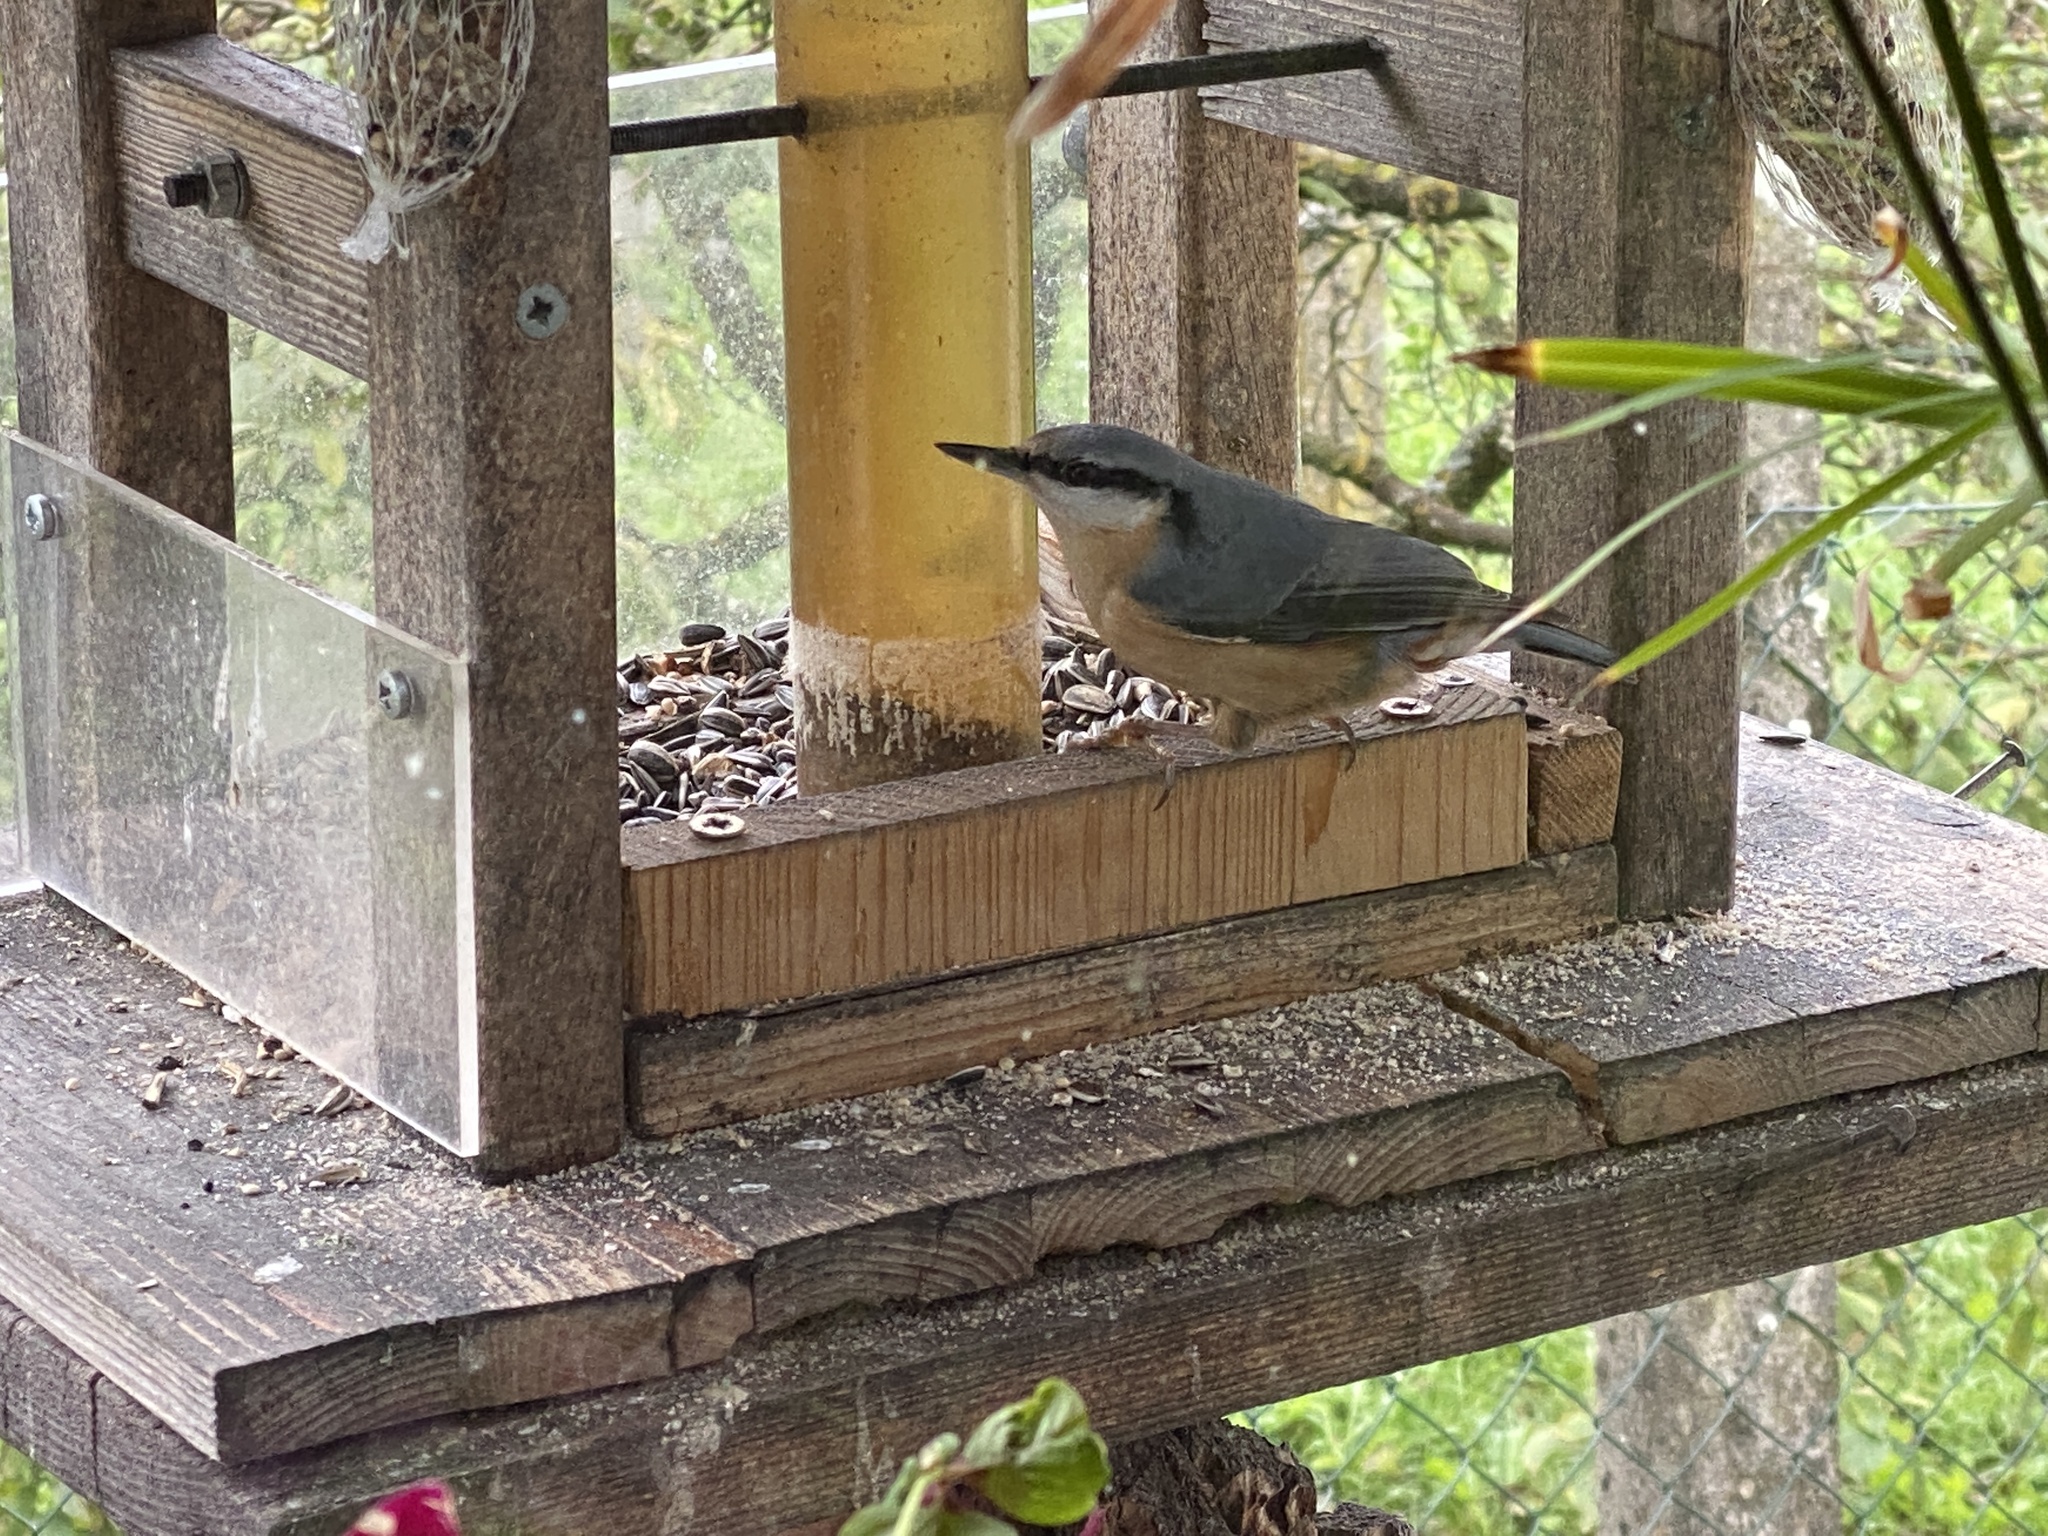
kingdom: Animalia
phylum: Chordata
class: Aves
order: Passeriformes
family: Sittidae
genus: Sitta
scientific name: Sitta europaea
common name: Eurasian nuthatch
